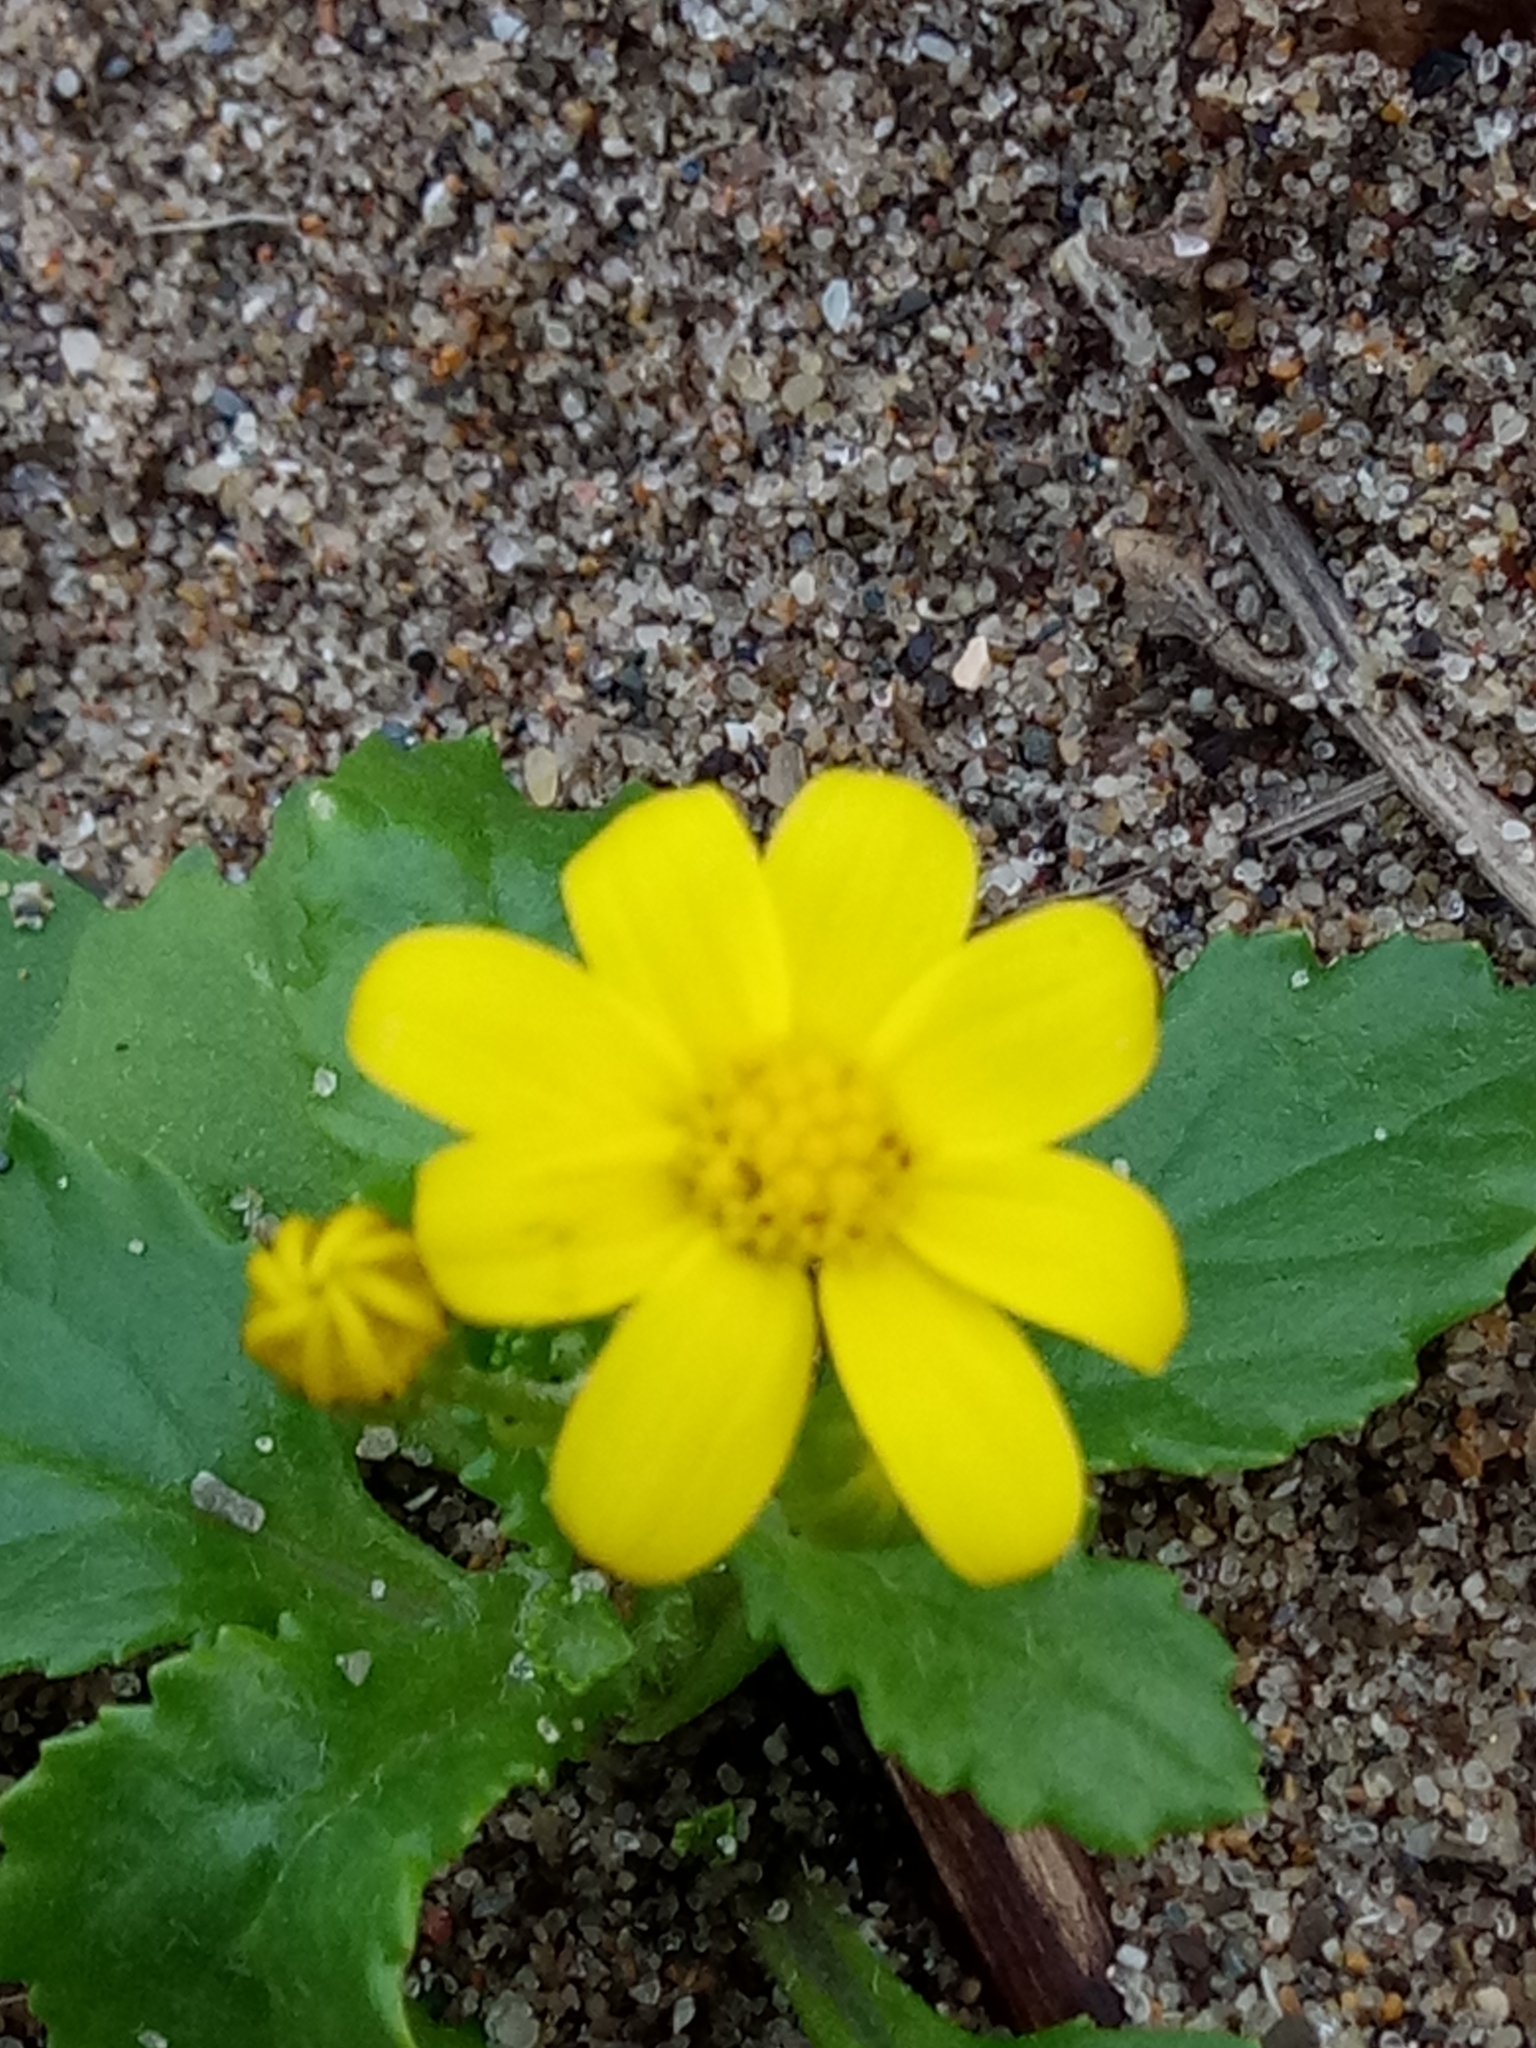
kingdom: Plantae
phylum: Tracheophyta
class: Magnoliopsida
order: Asterales
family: Asteraceae
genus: Senecio
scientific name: Senecio leucanthemifolius
